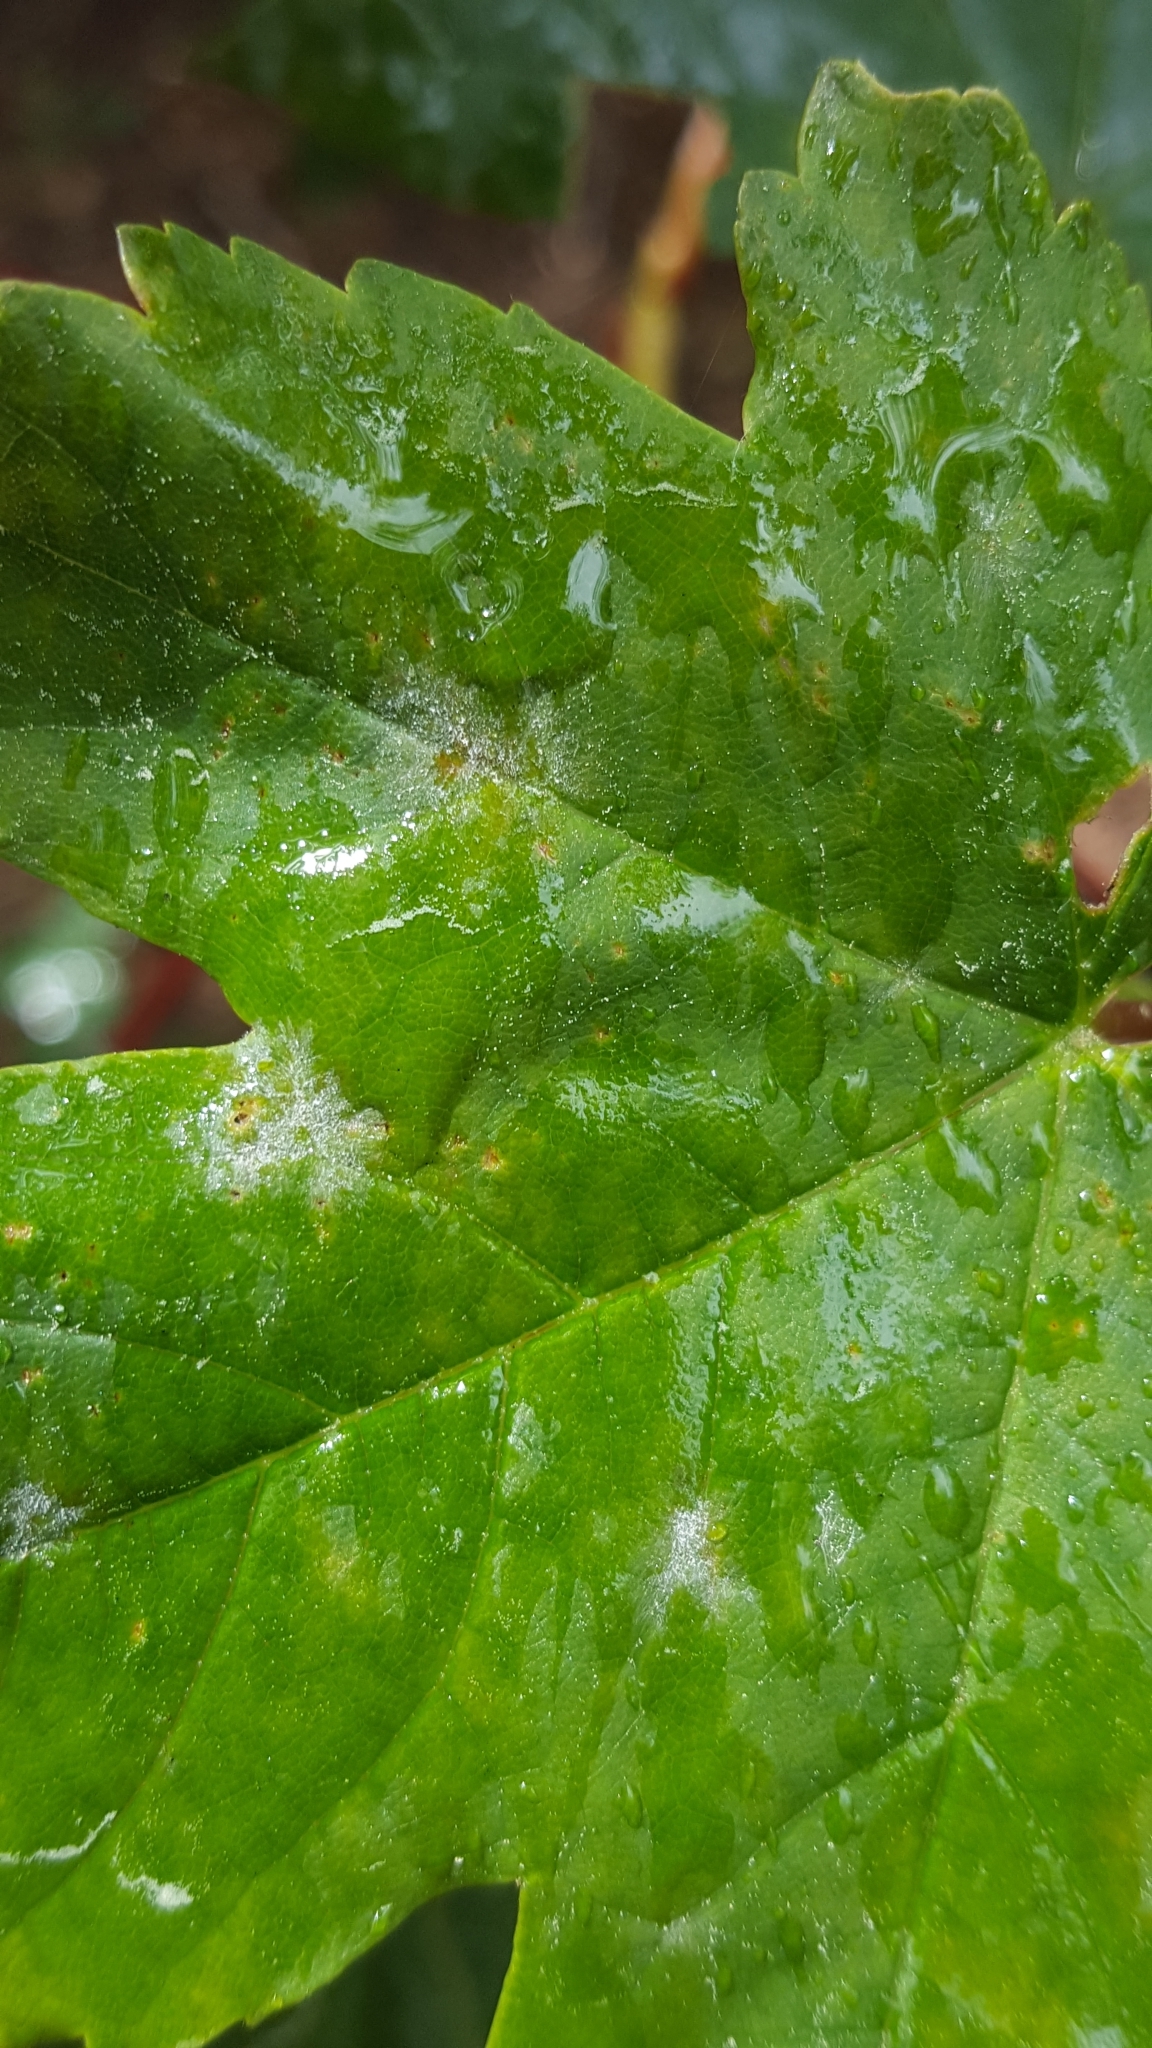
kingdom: Fungi
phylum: Ascomycota
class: Leotiomycetes
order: Helotiales
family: Erysiphaceae
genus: Sawadaea
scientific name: Sawadaea bicornis
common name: Maple mildew
